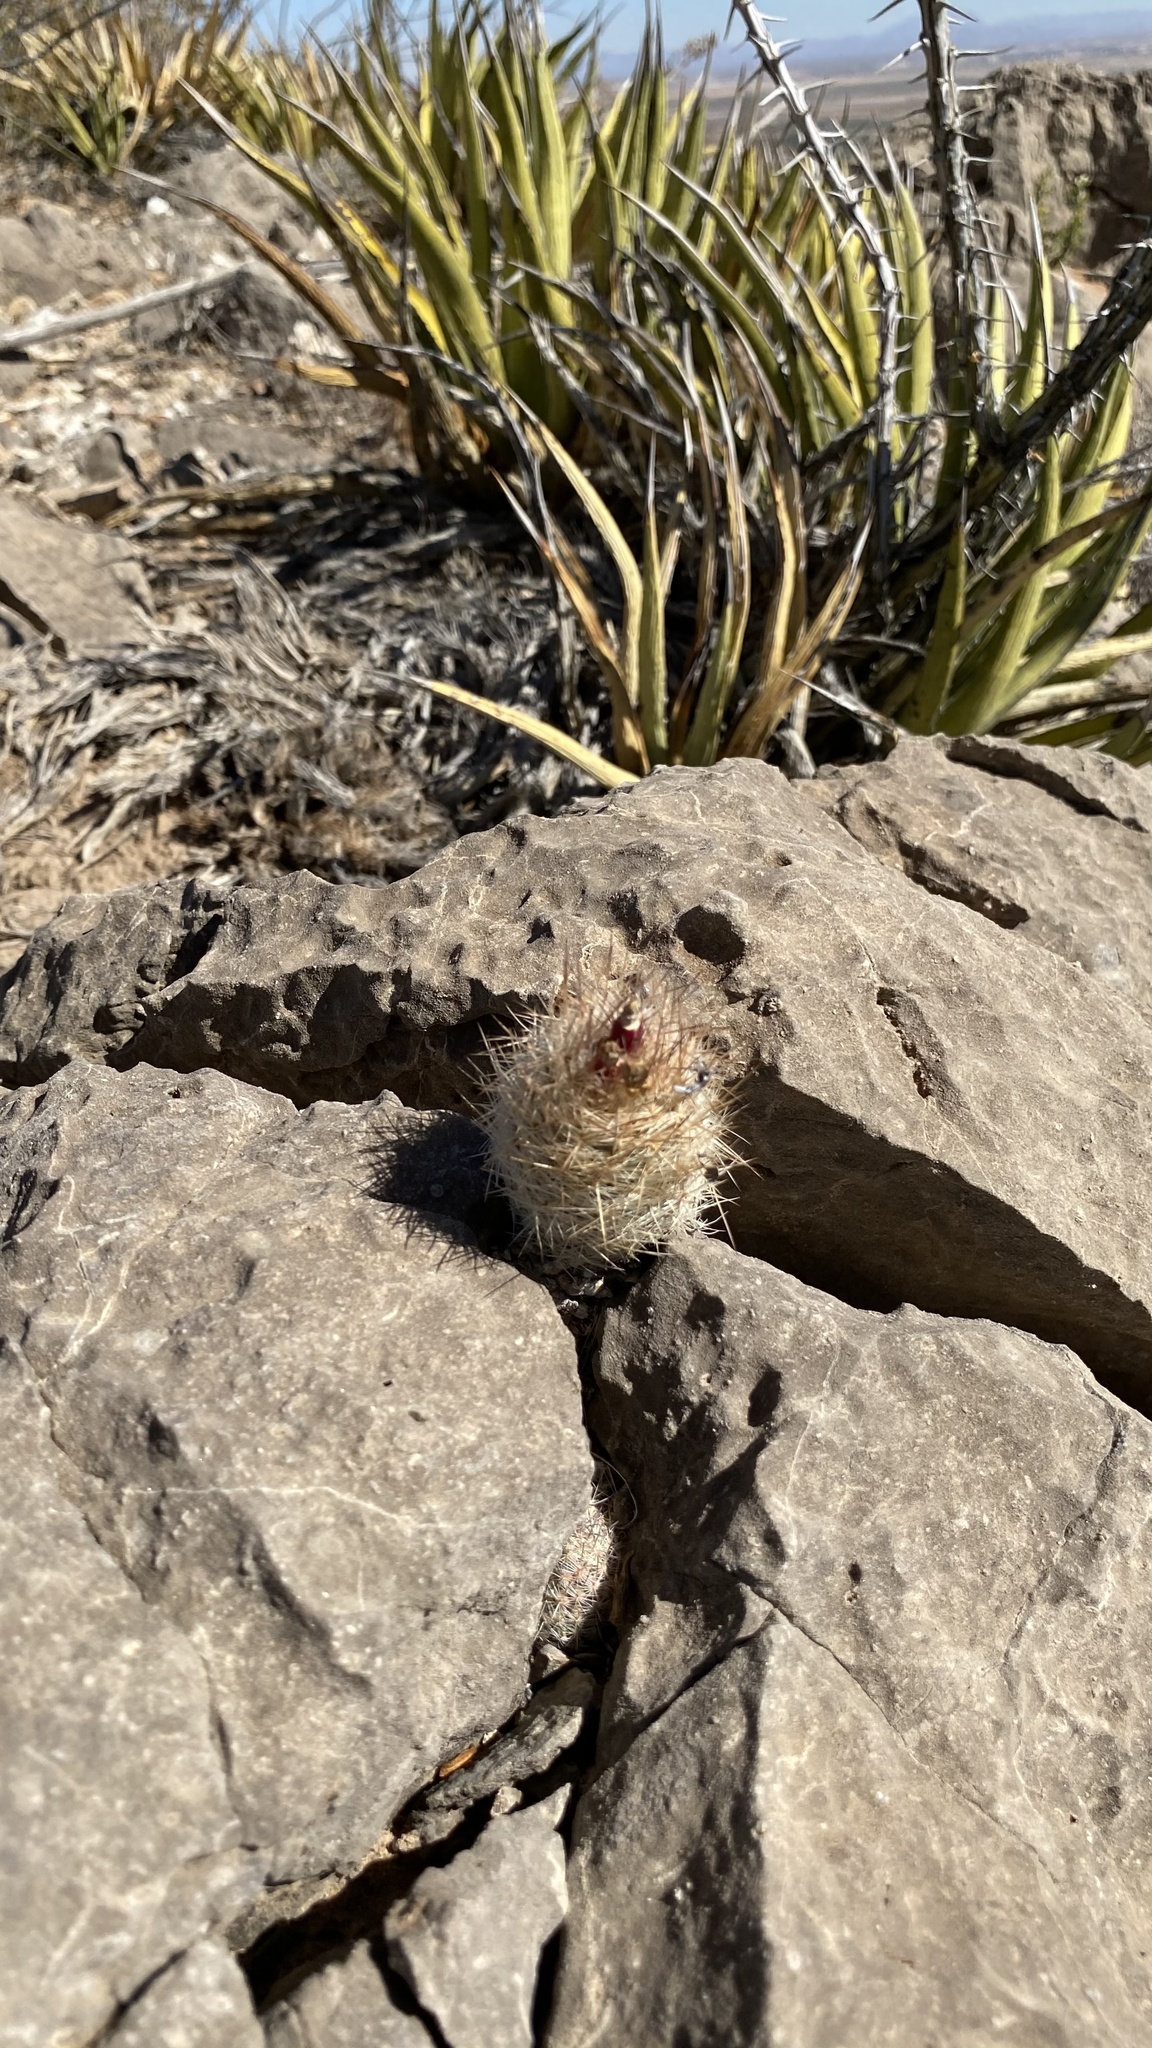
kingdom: Plantae
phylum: Tracheophyta
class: Magnoliopsida
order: Caryophyllales
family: Cactaceae
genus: Pelecyphora
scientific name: Pelecyphora tuberculosa
